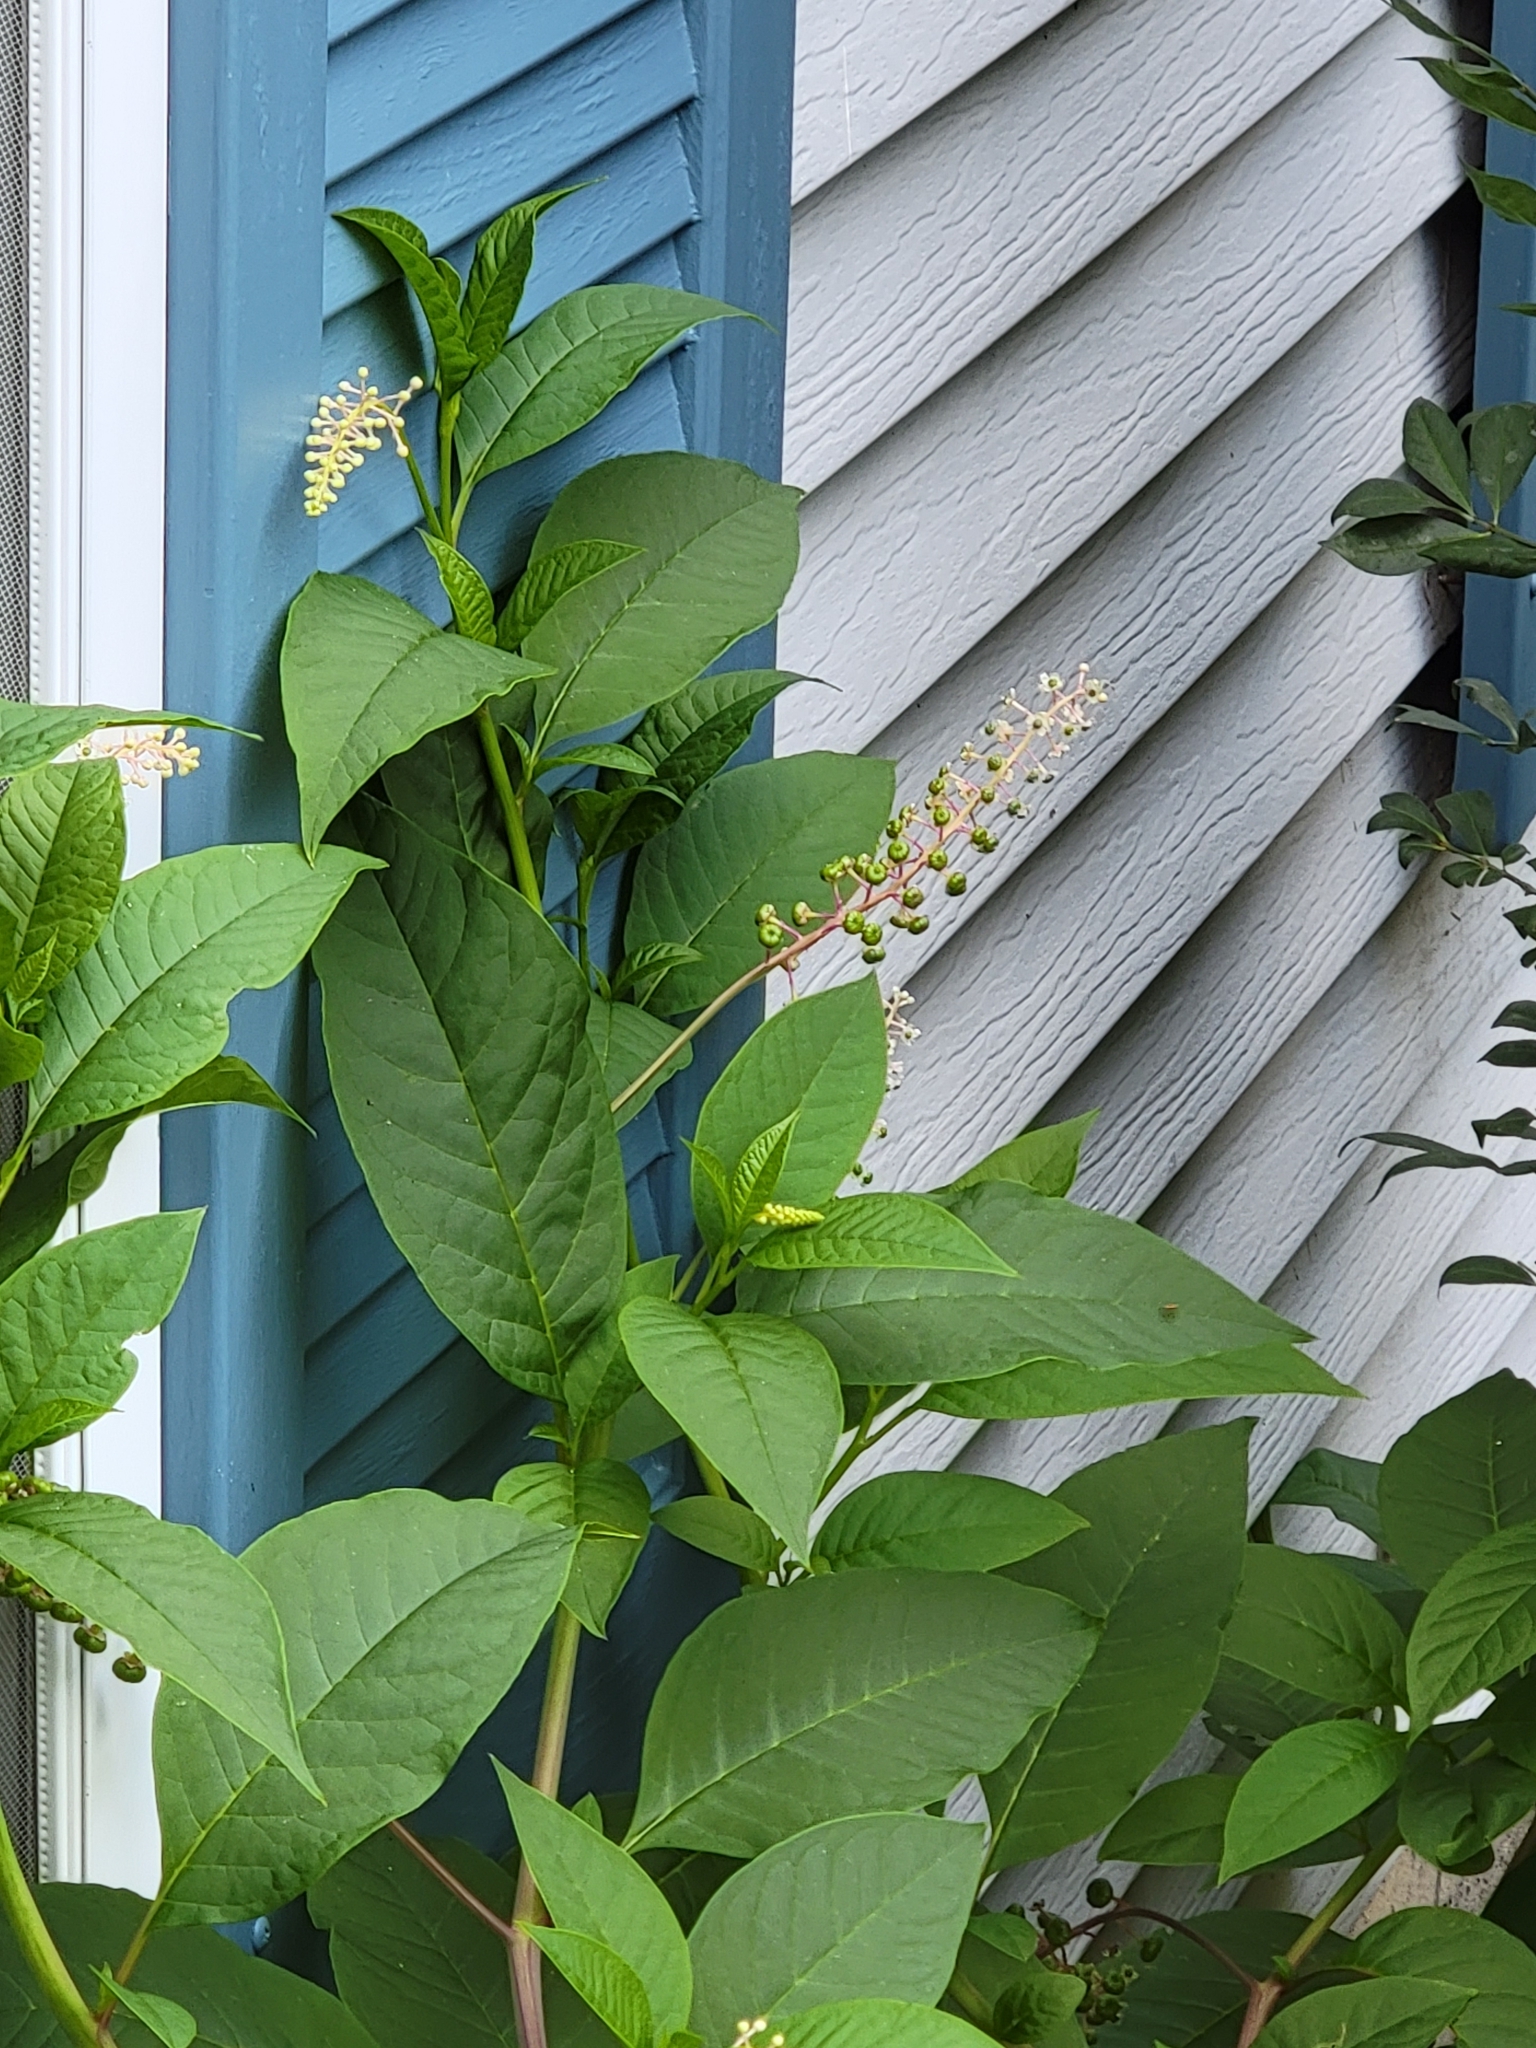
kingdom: Plantae
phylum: Tracheophyta
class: Magnoliopsida
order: Caryophyllales
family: Phytolaccaceae
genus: Phytolacca
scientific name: Phytolacca americana
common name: American pokeweed
